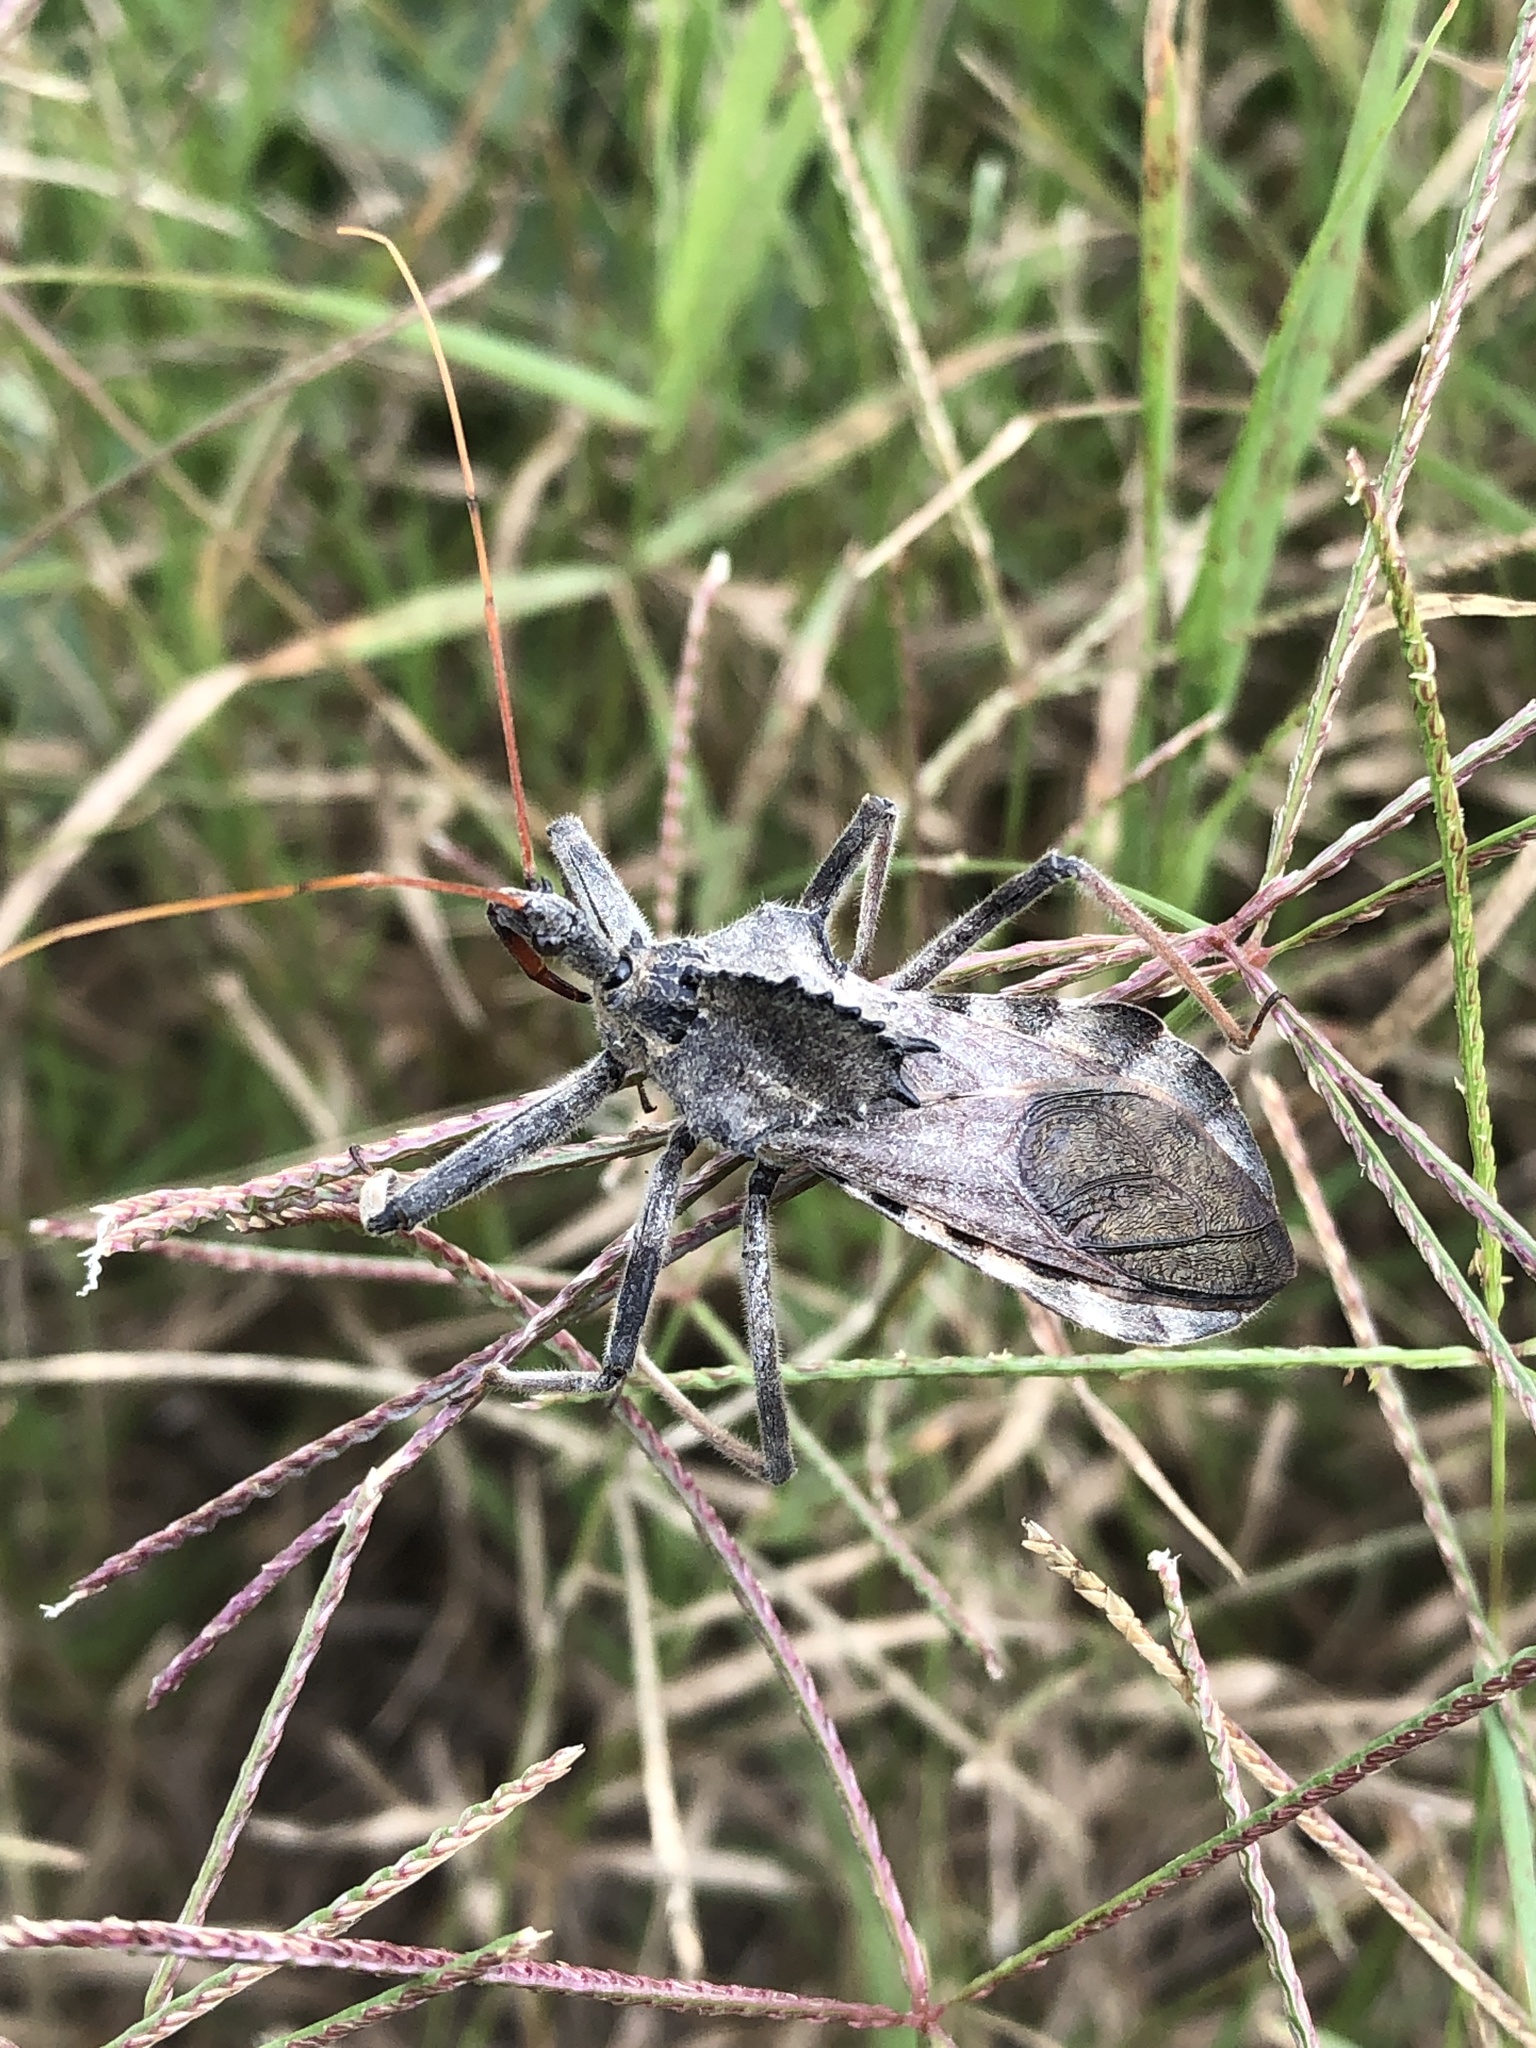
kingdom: Animalia
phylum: Arthropoda
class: Insecta
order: Hemiptera
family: Reduviidae
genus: Arilus
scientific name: Arilus cristatus
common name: North american wheel bug
